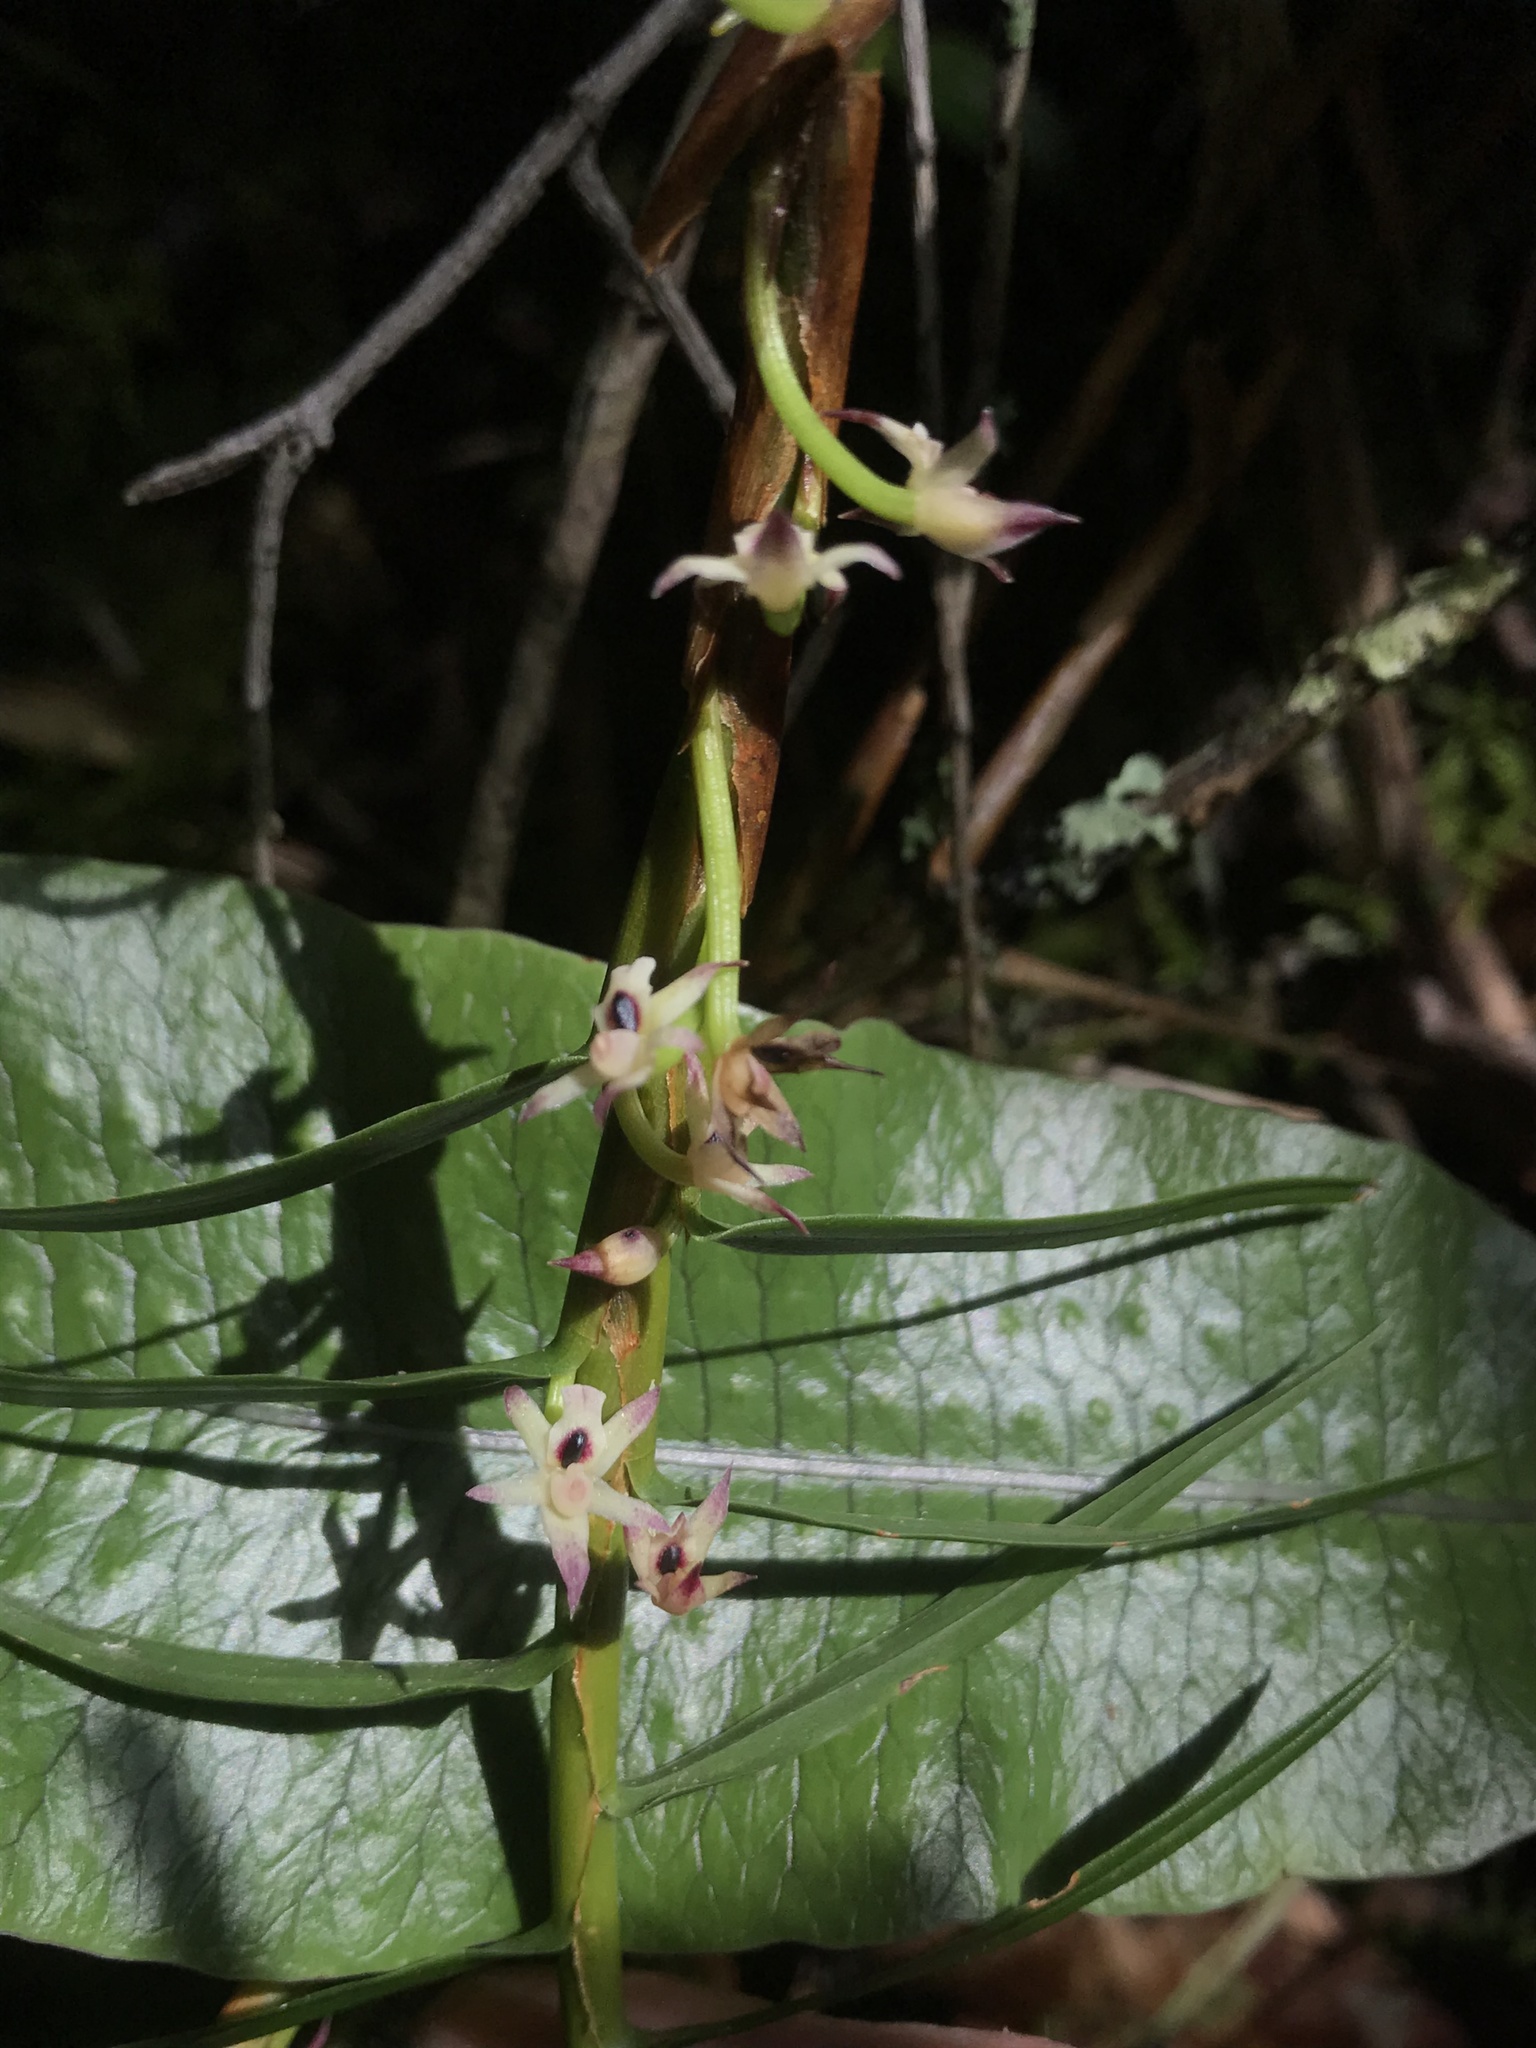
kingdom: Plantae
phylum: Tracheophyta
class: Liliopsida
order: Asparagales
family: Orchidaceae
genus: Maxillaria
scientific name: Maxillaria graminifolia
